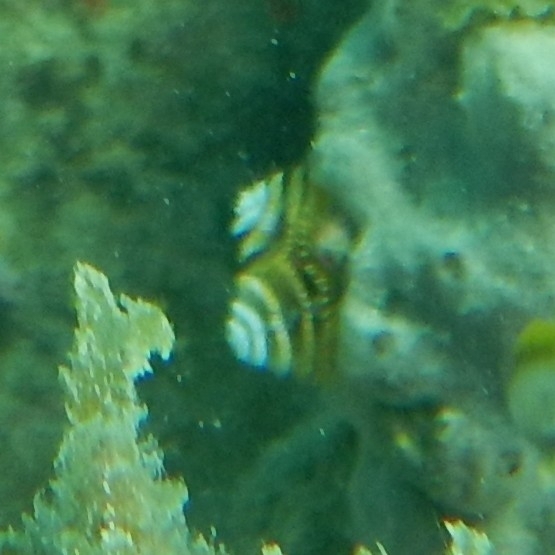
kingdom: Animalia
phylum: Annelida
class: Polychaeta
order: Sabellida
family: Serpulidae
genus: Spirobranchus
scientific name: Spirobranchus giganteus
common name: Christmas tree worm
